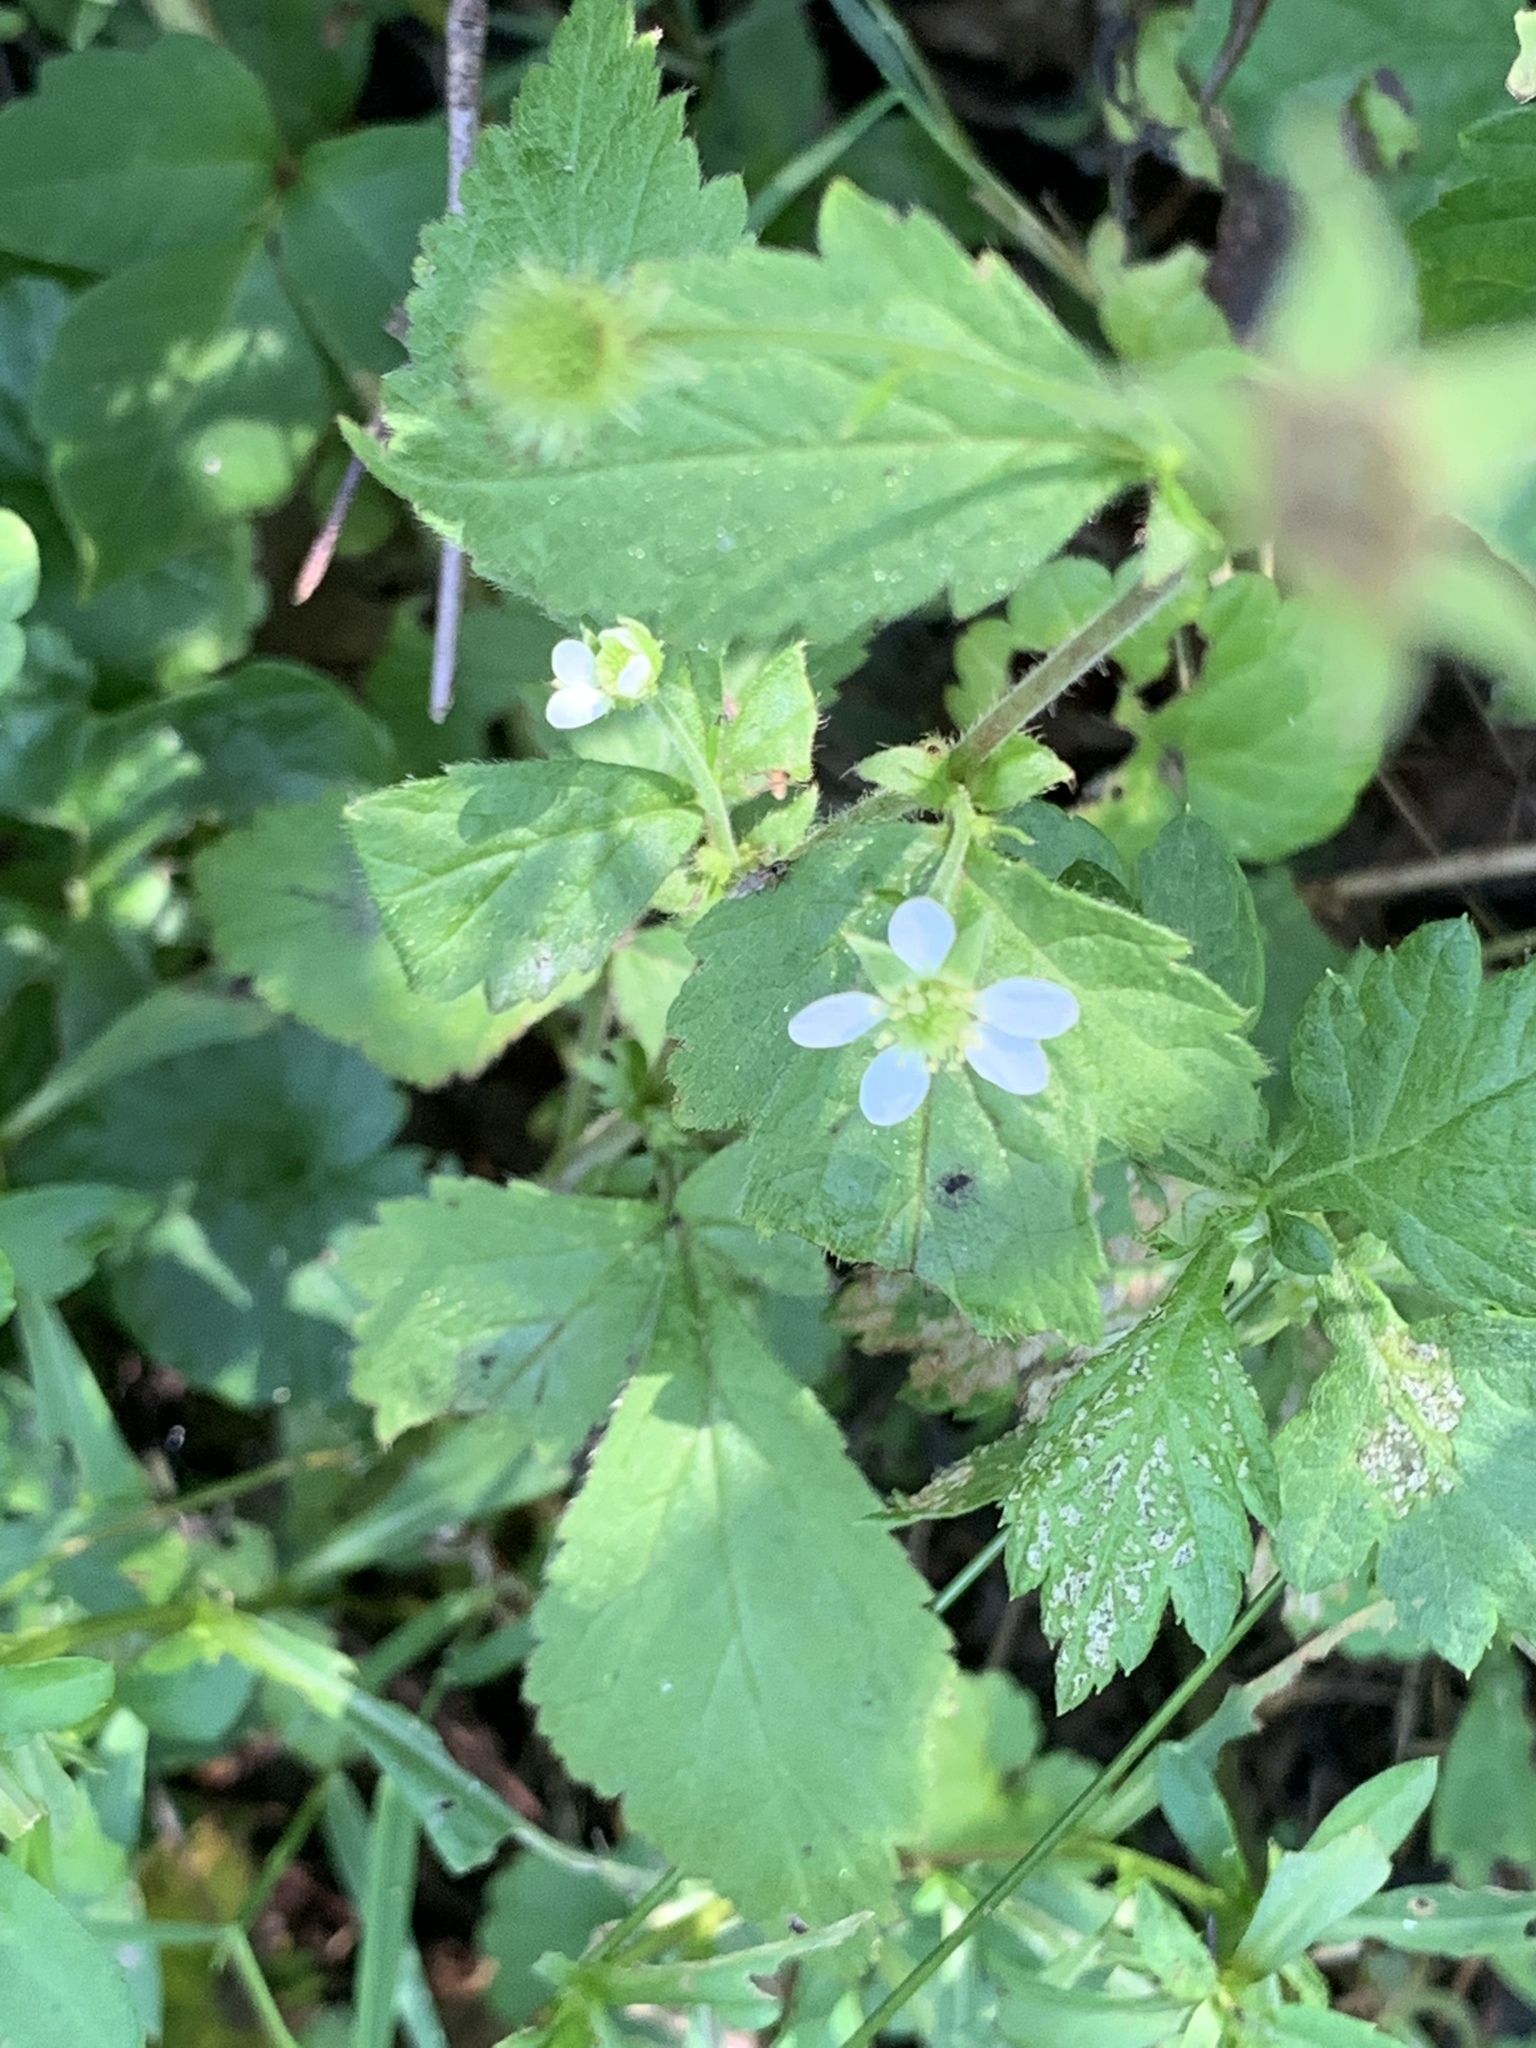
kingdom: Plantae
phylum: Tracheophyta
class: Magnoliopsida
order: Rosales
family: Rosaceae
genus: Geum
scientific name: Geum canadense
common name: White avens
